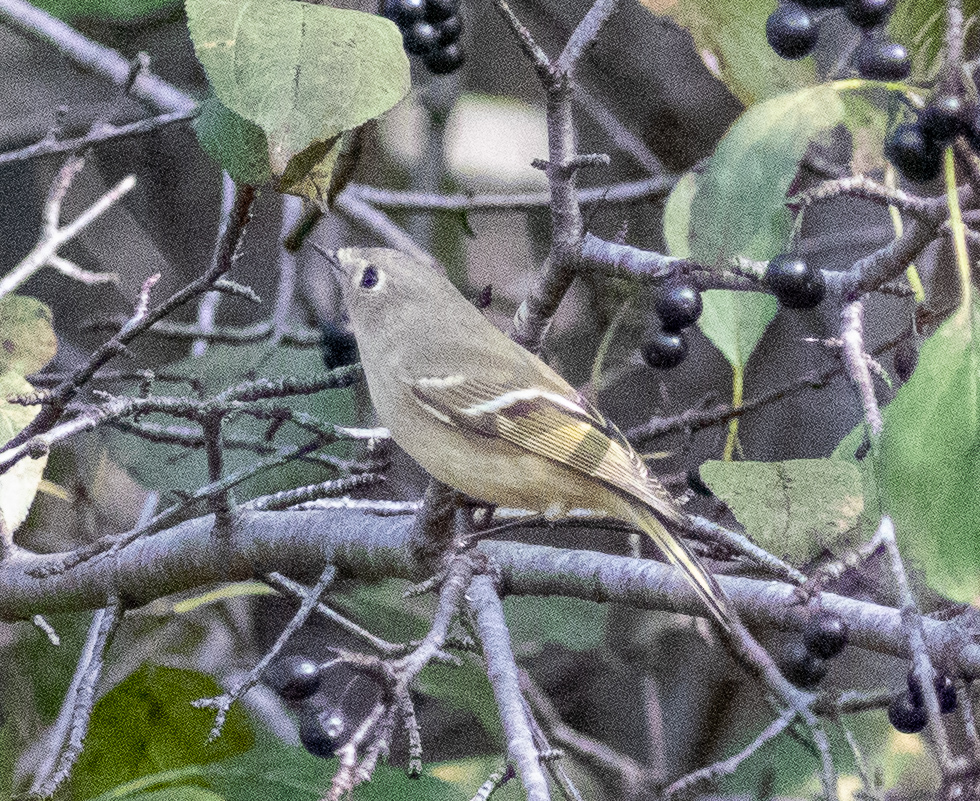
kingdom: Animalia
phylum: Chordata
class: Aves
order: Passeriformes
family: Regulidae
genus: Regulus
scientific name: Regulus calendula
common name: Ruby-crowned kinglet
